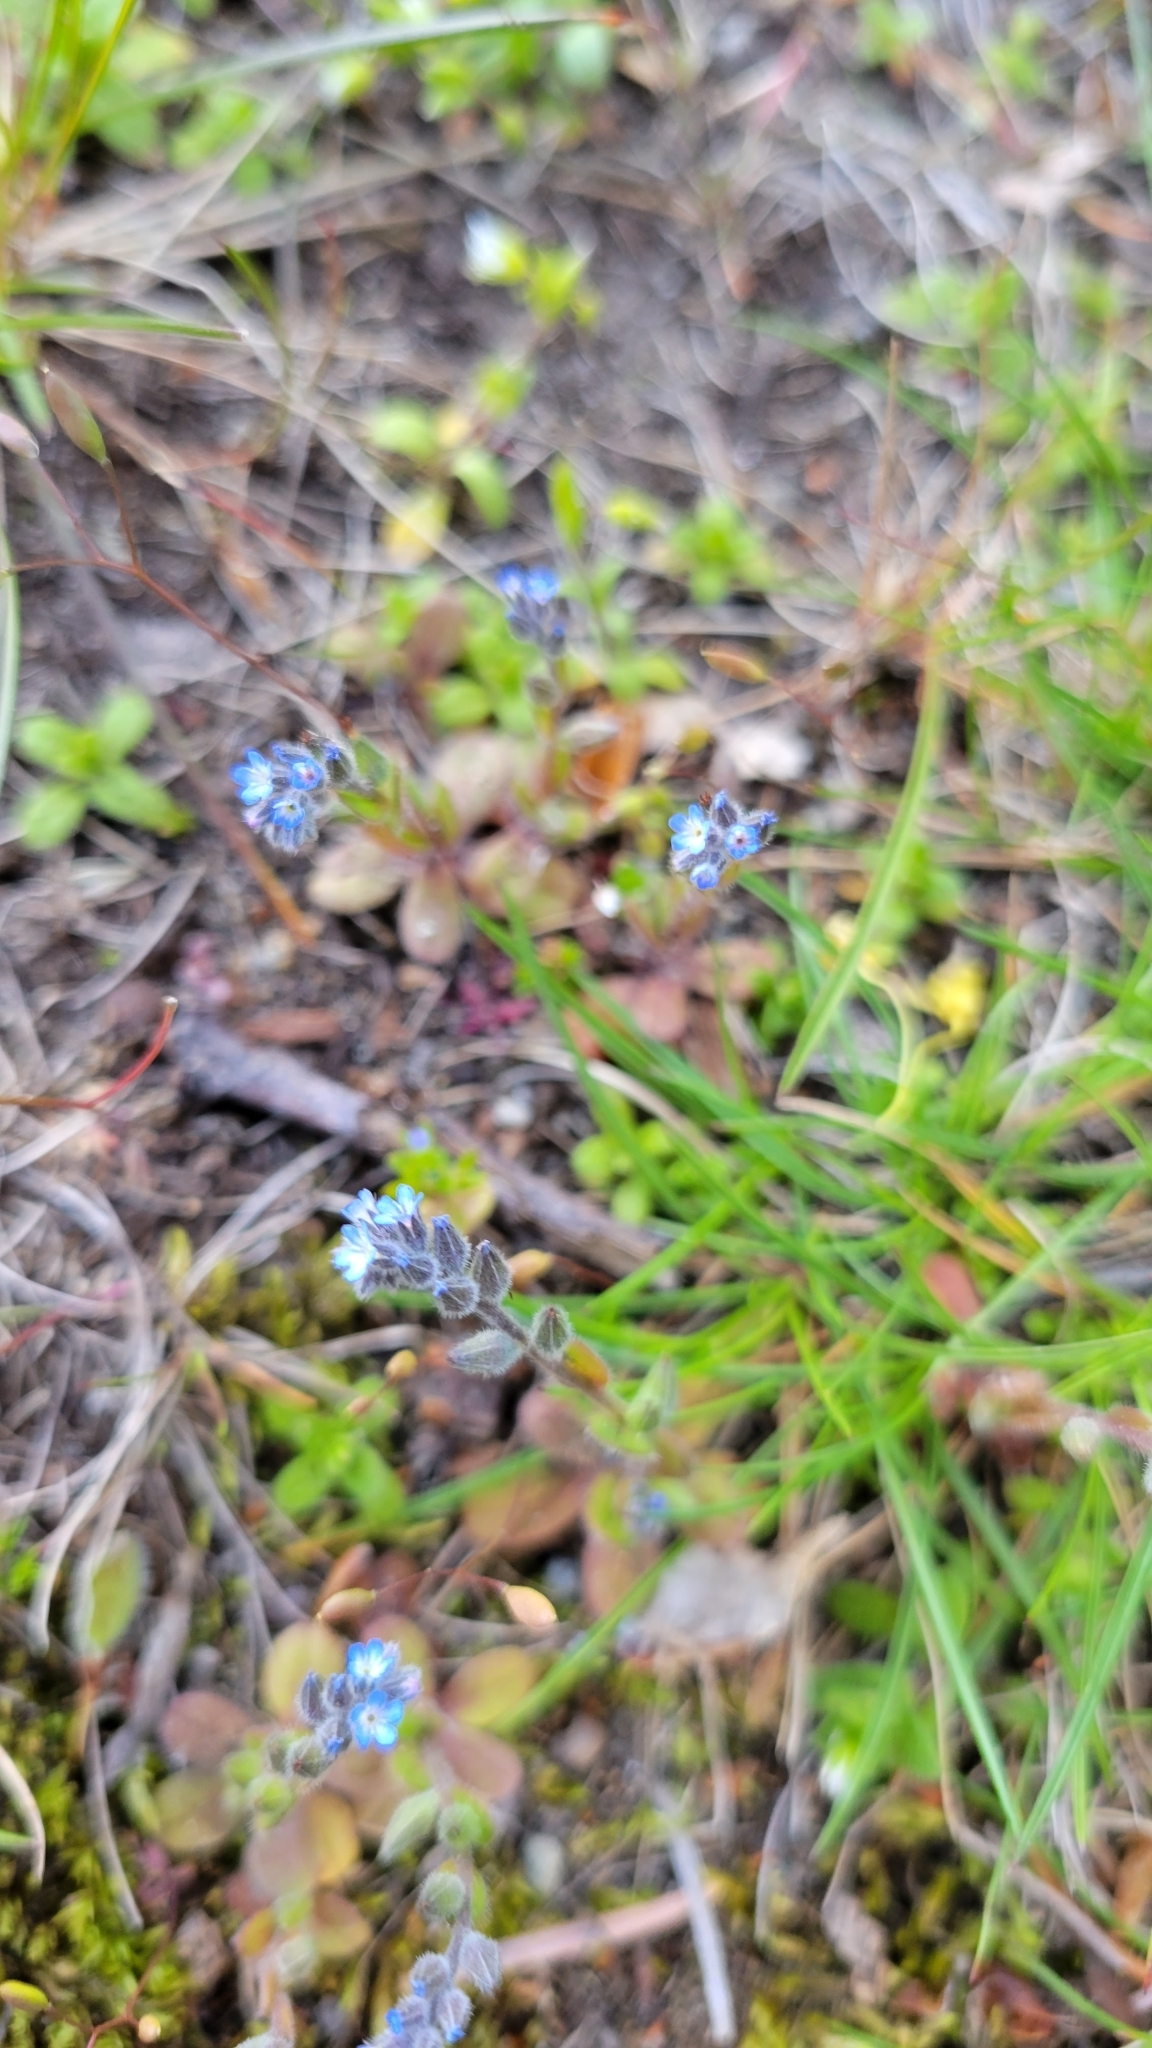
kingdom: Plantae
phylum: Tracheophyta
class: Magnoliopsida
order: Boraginales
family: Boraginaceae
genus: Myosotis
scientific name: Myosotis stricta
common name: Strict forget-me-not
